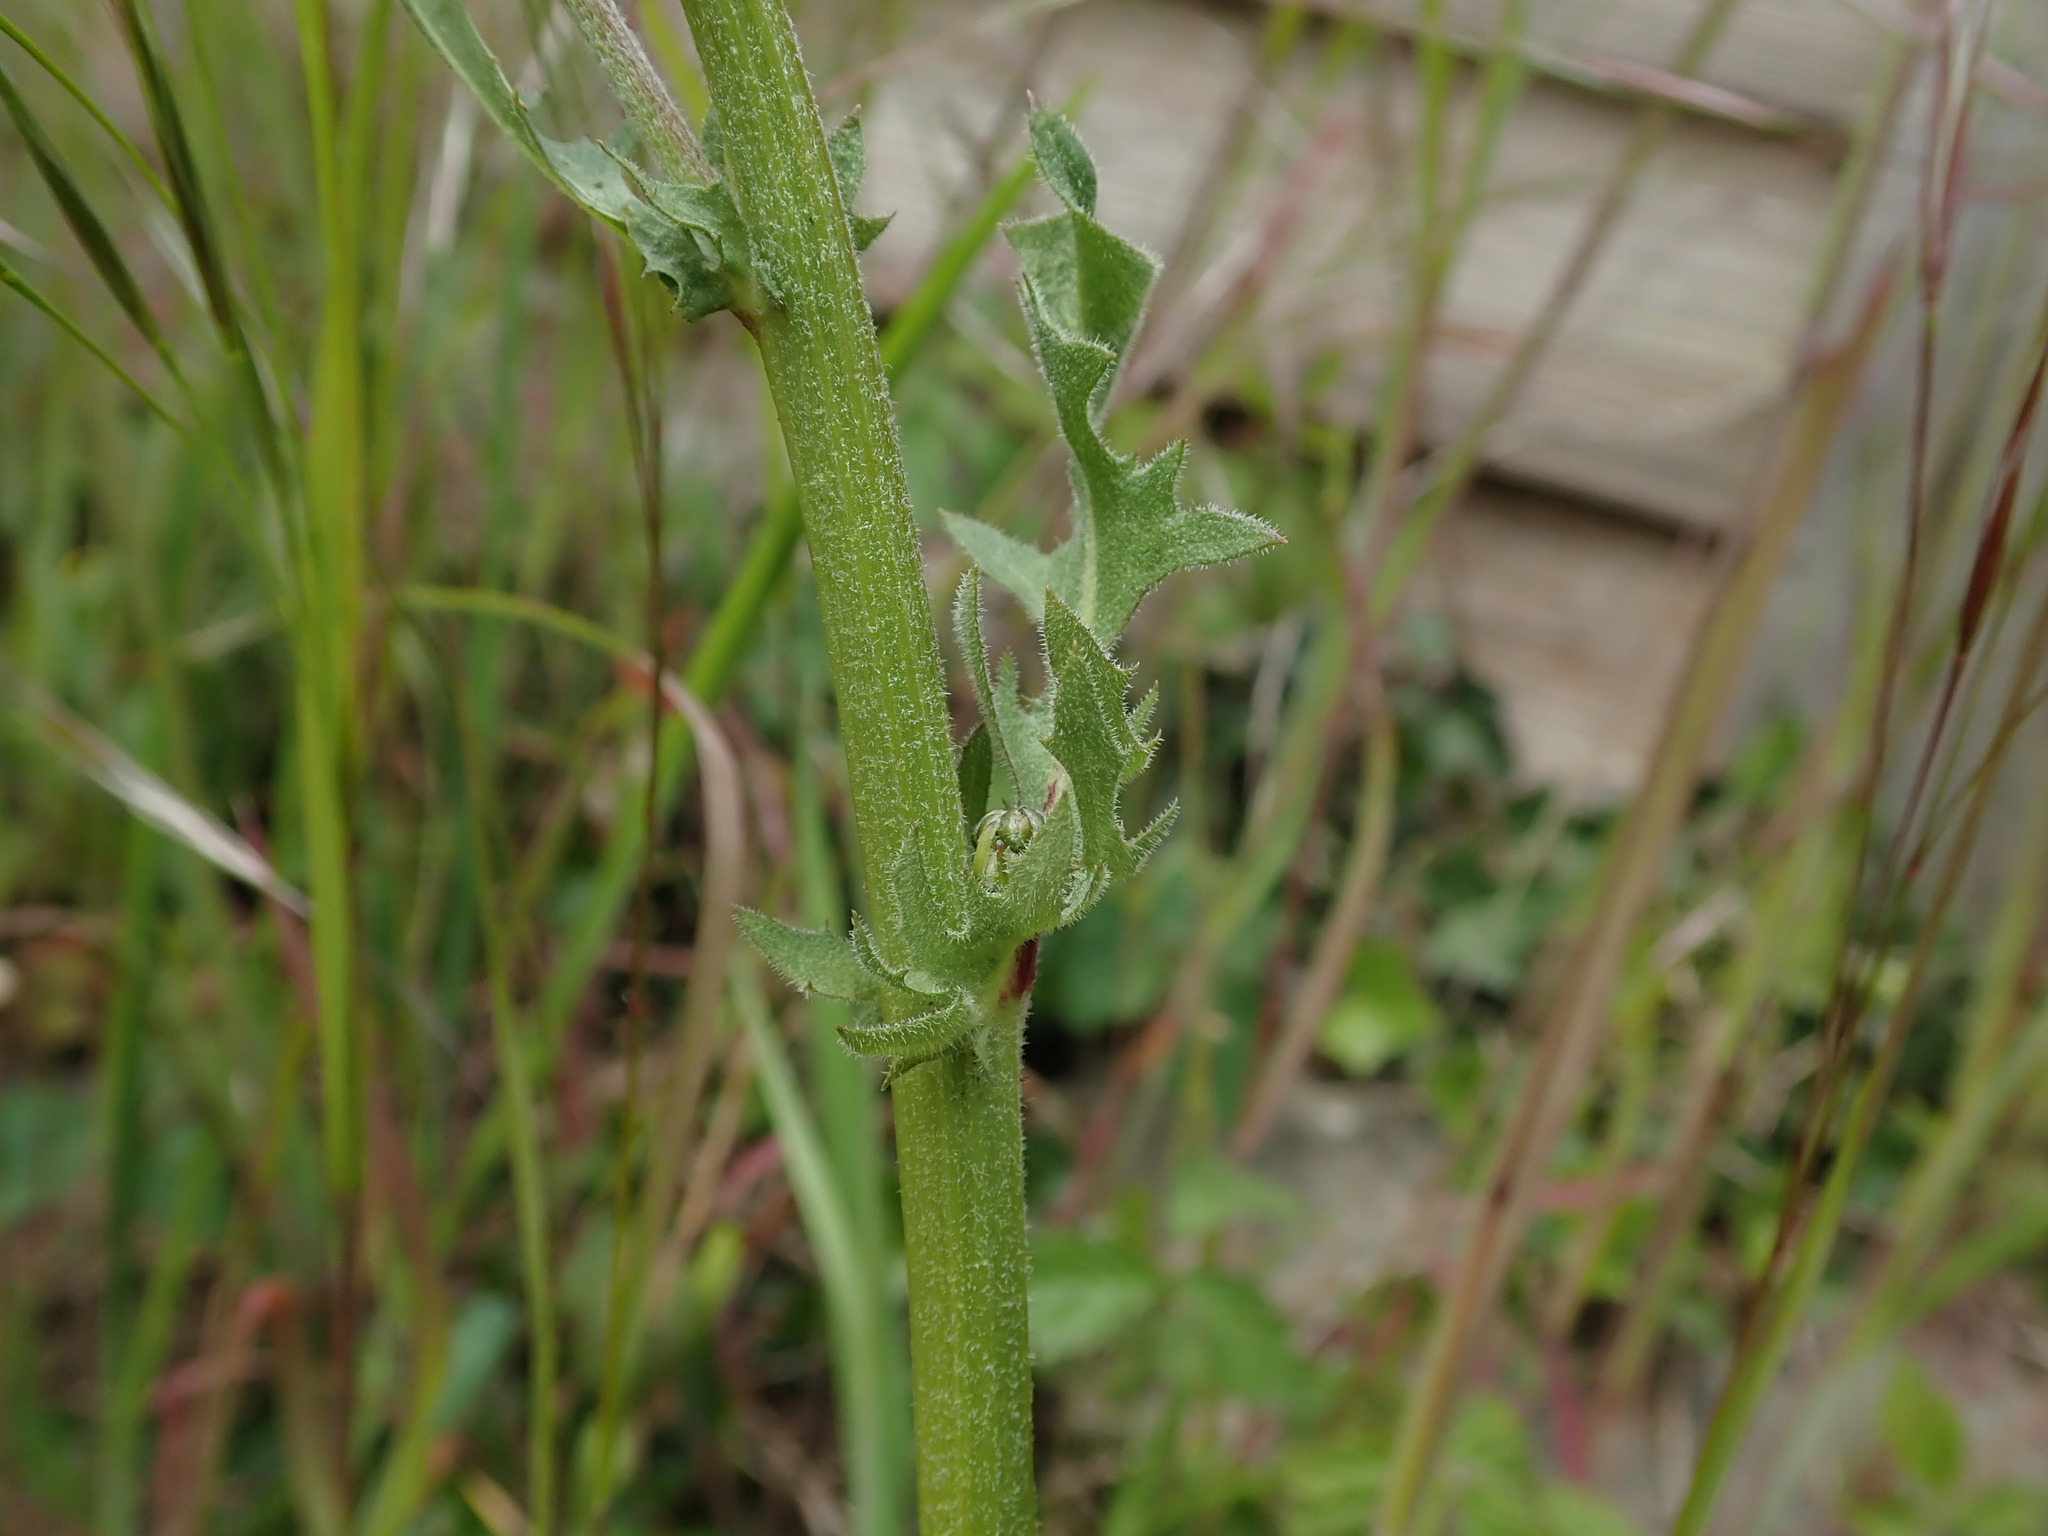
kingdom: Plantae
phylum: Tracheophyta
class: Magnoliopsida
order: Asterales
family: Asteraceae
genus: Crepis
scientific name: Crepis vesicaria
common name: Beaked hawksbeard
